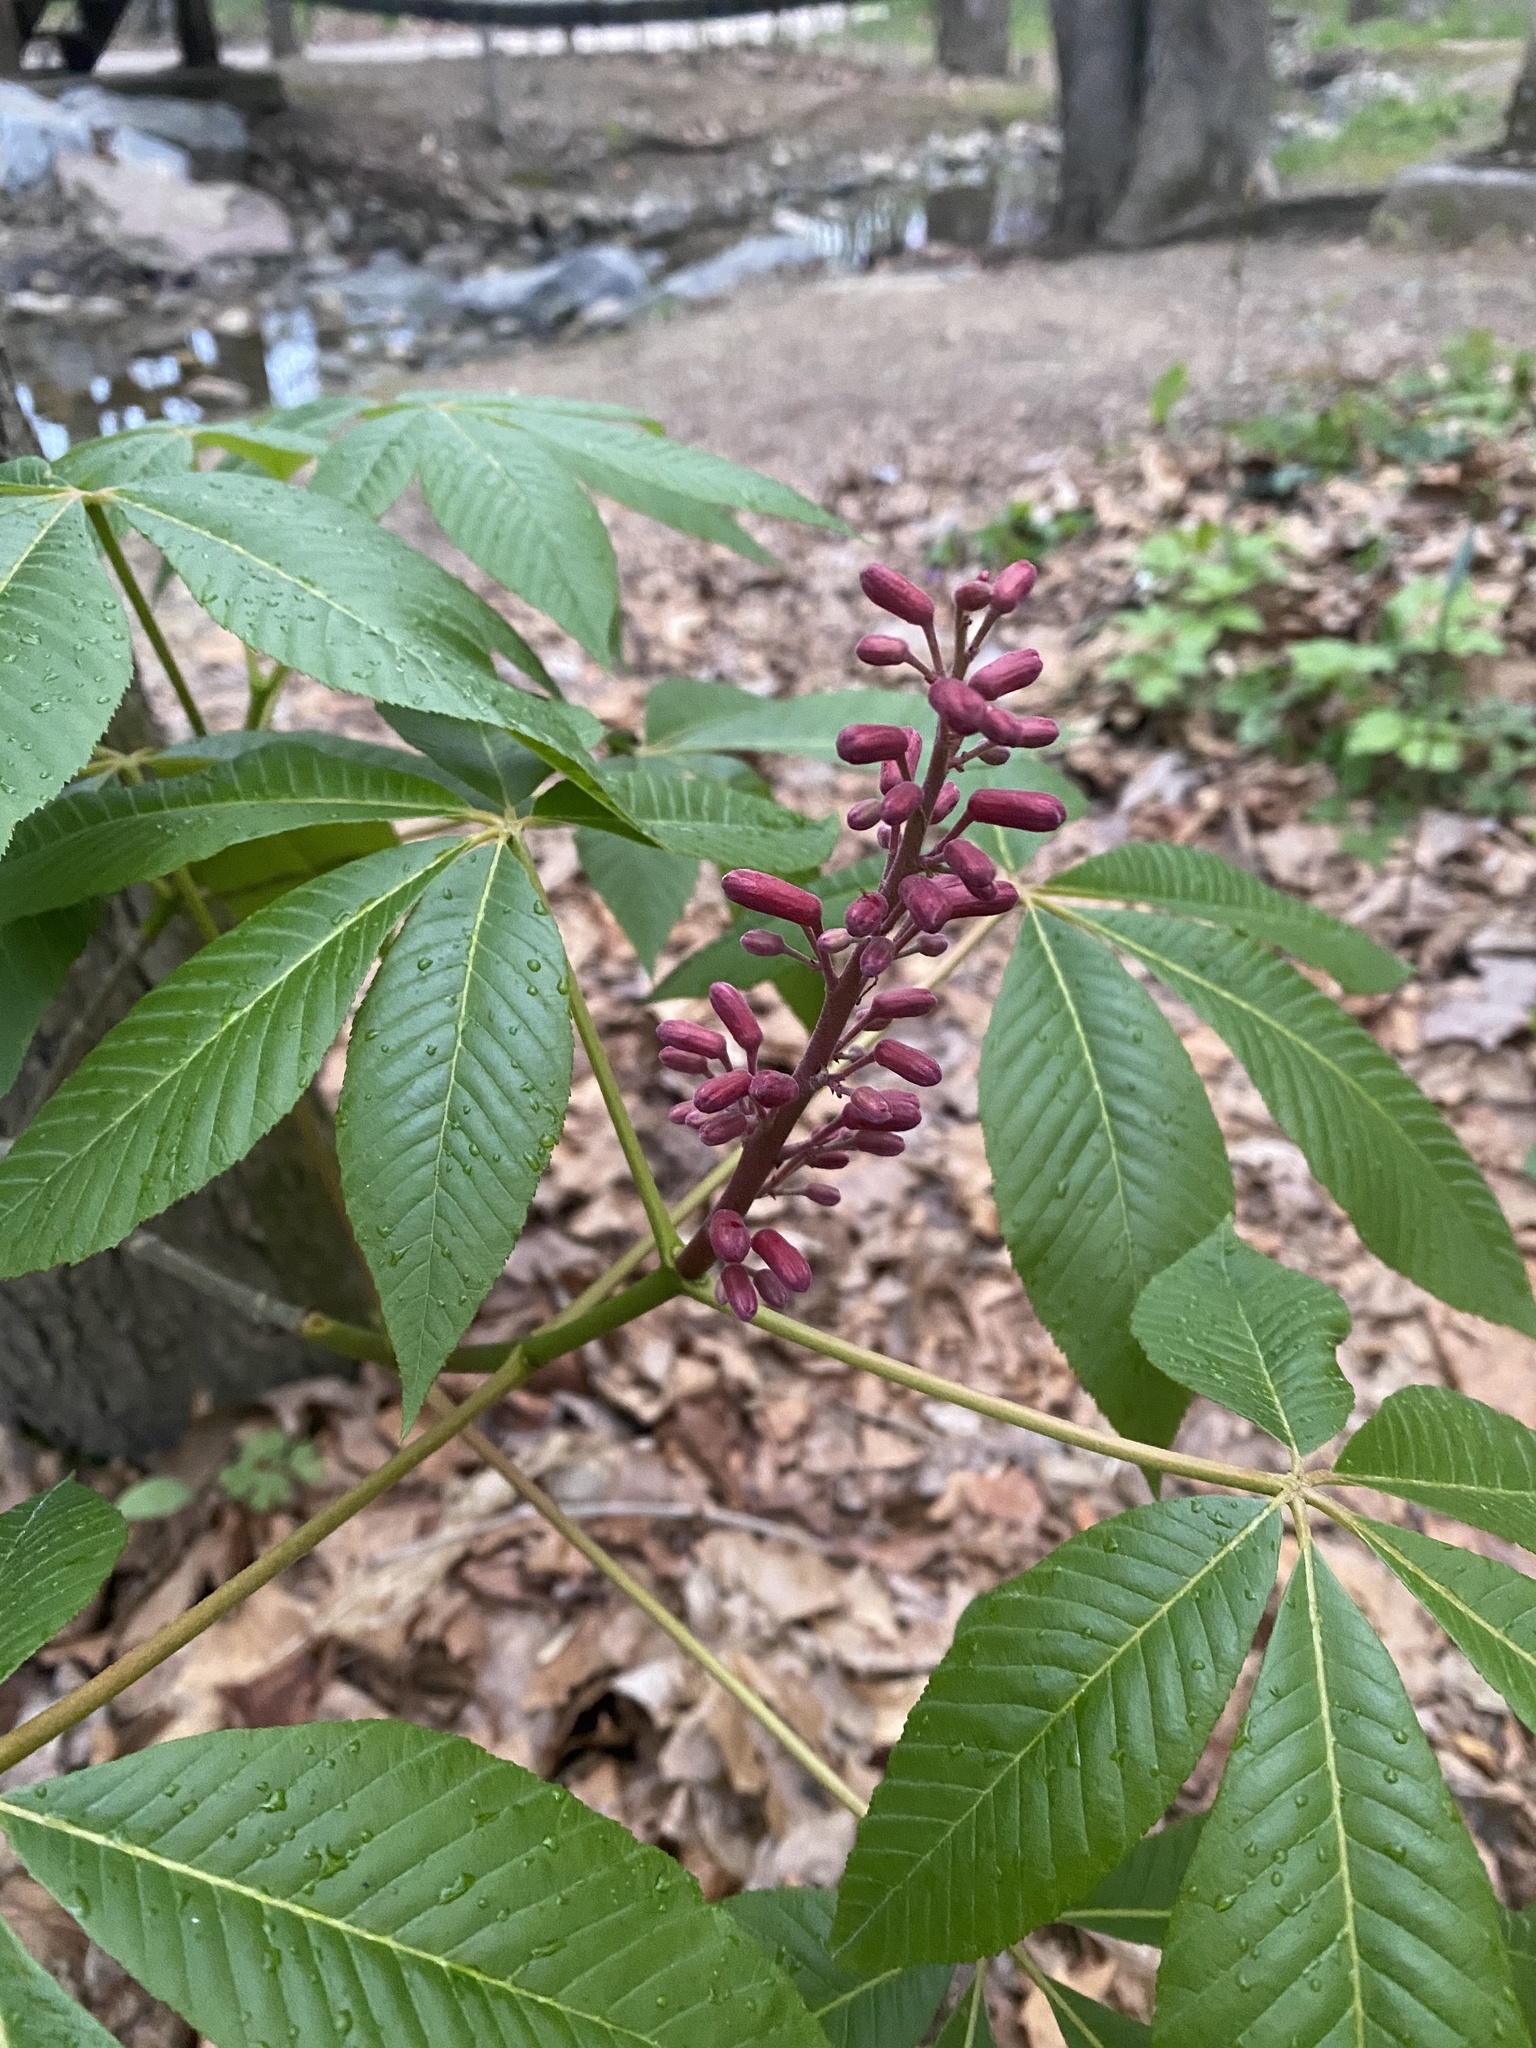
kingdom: Plantae
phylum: Tracheophyta
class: Magnoliopsida
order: Sapindales
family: Sapindaceae
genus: Aesculus
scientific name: Aesculus pavia
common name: Red buckeye
